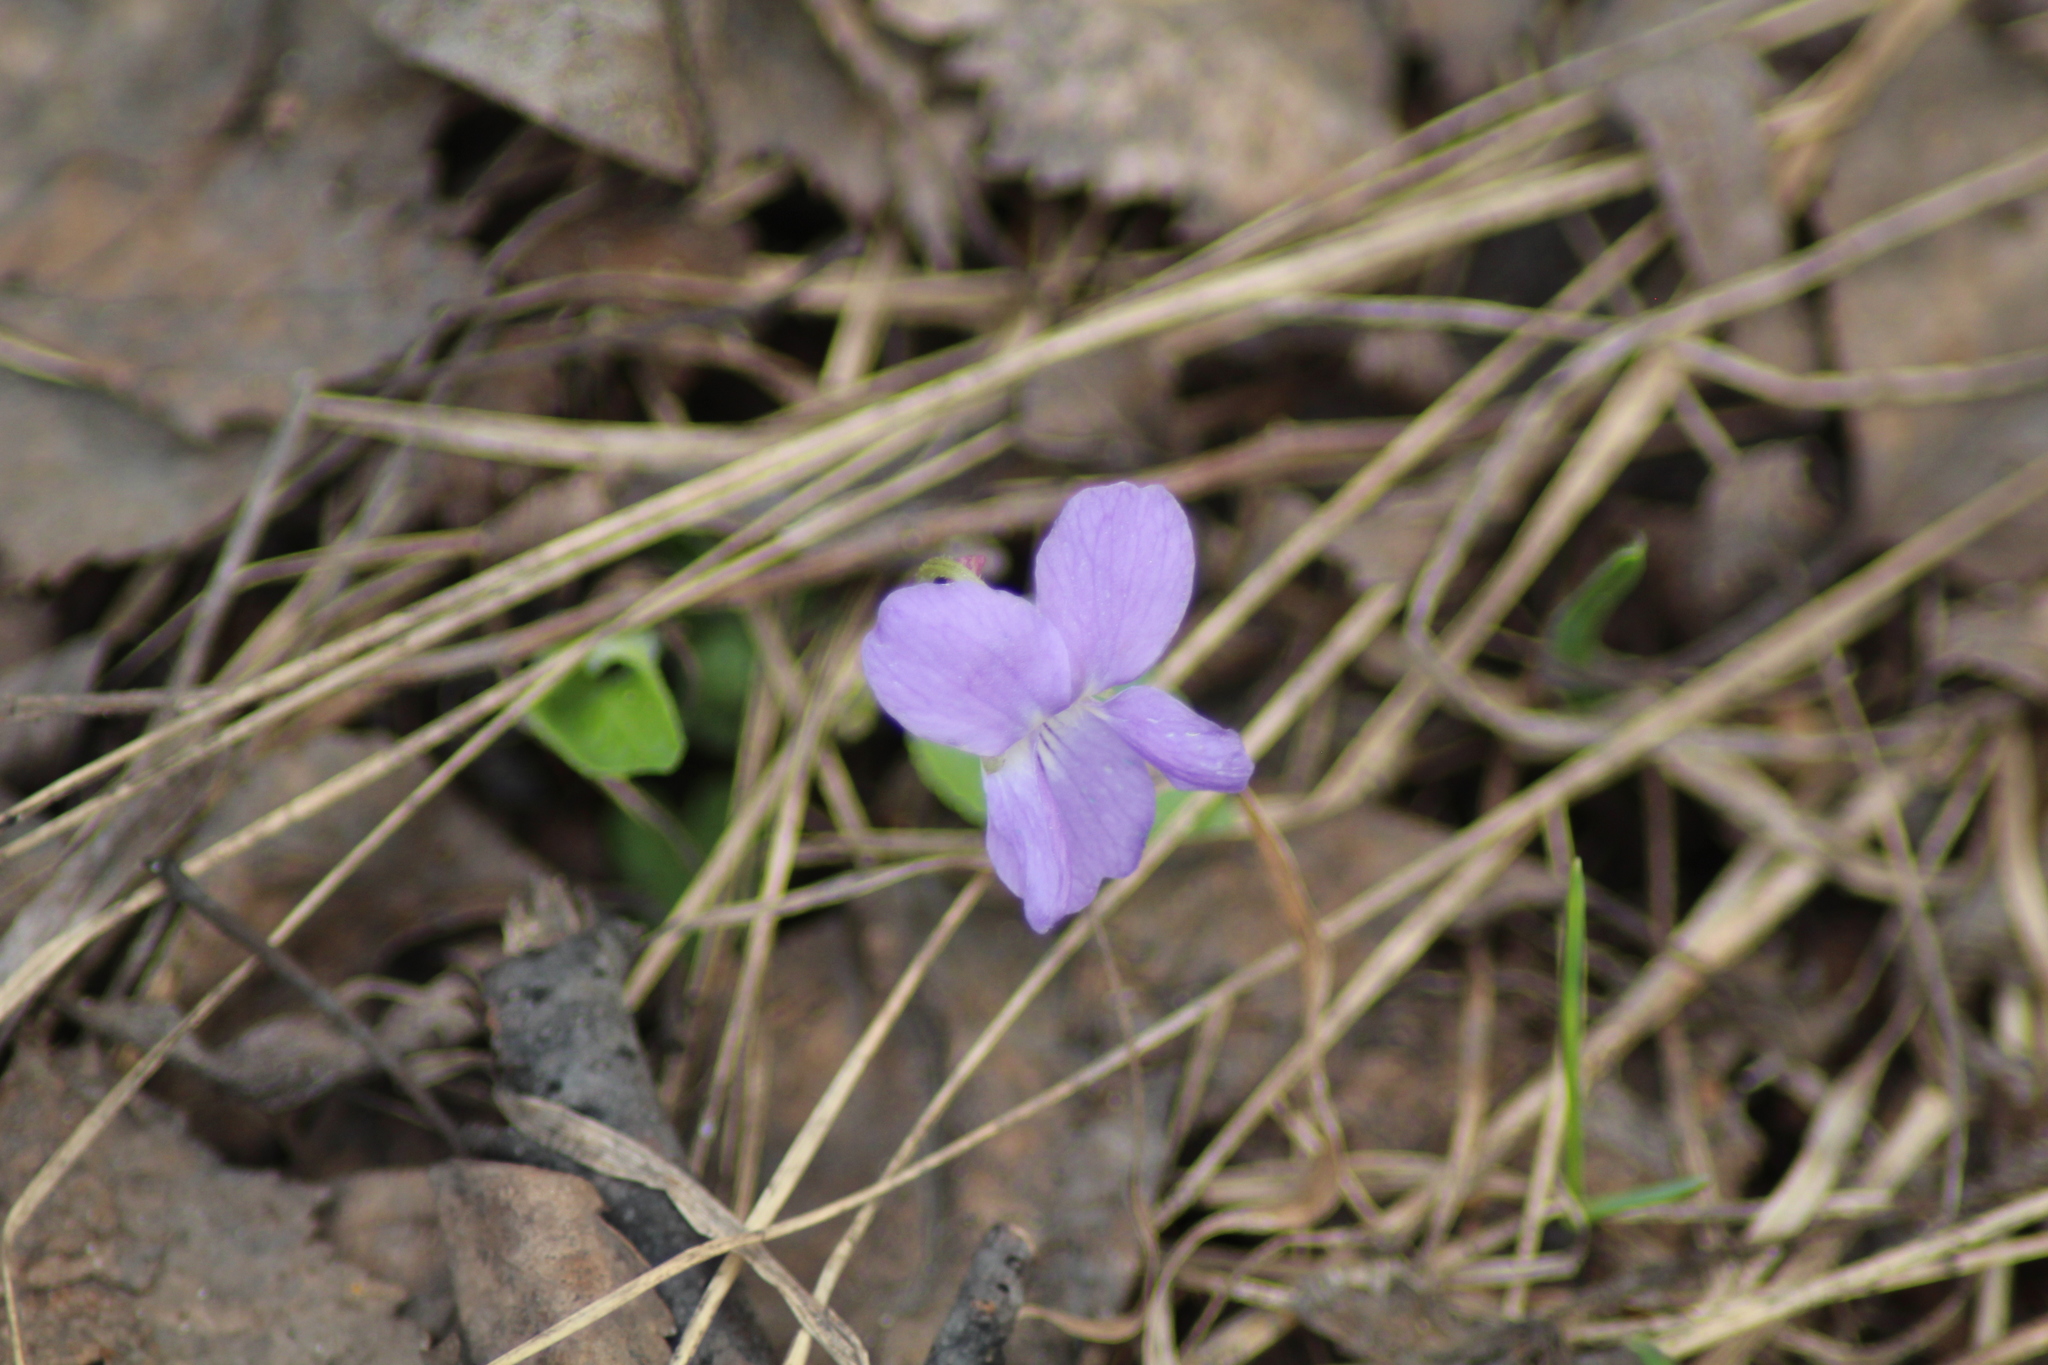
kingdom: Plantae
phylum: Tracheophyta
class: Magnoliopsida
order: Malpighiales
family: Violaceae
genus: Viola
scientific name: Viola hirta
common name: Hairy violet
